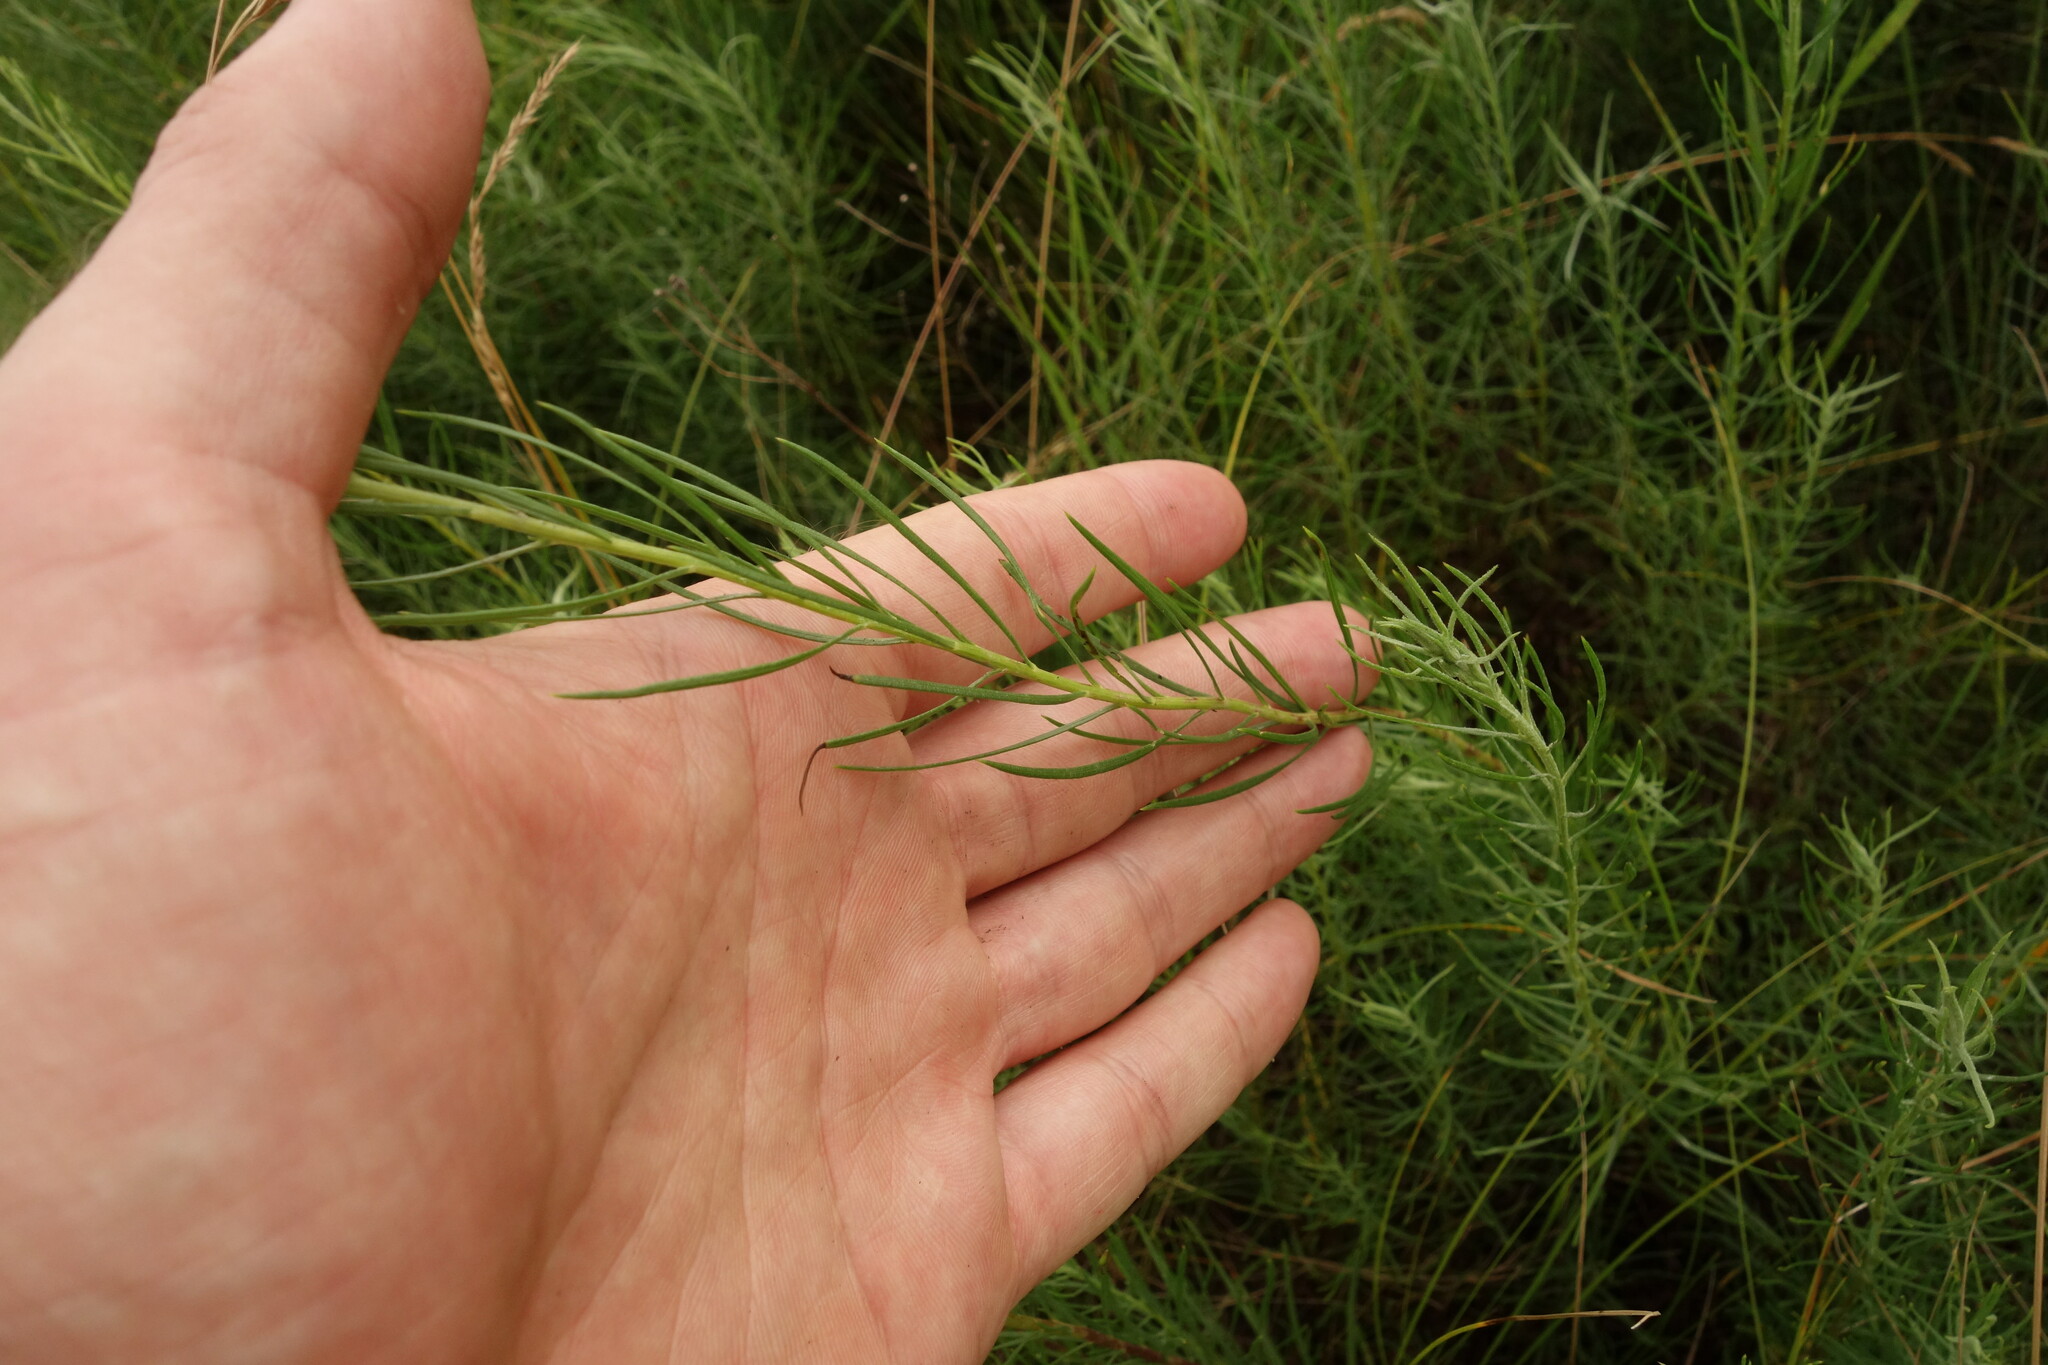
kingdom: Plantae
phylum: Tracheophyta
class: Magnoliopsida
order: Asterales
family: Asteraceae
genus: Galatella
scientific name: Galatella linosyris
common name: Goldilocks aster
